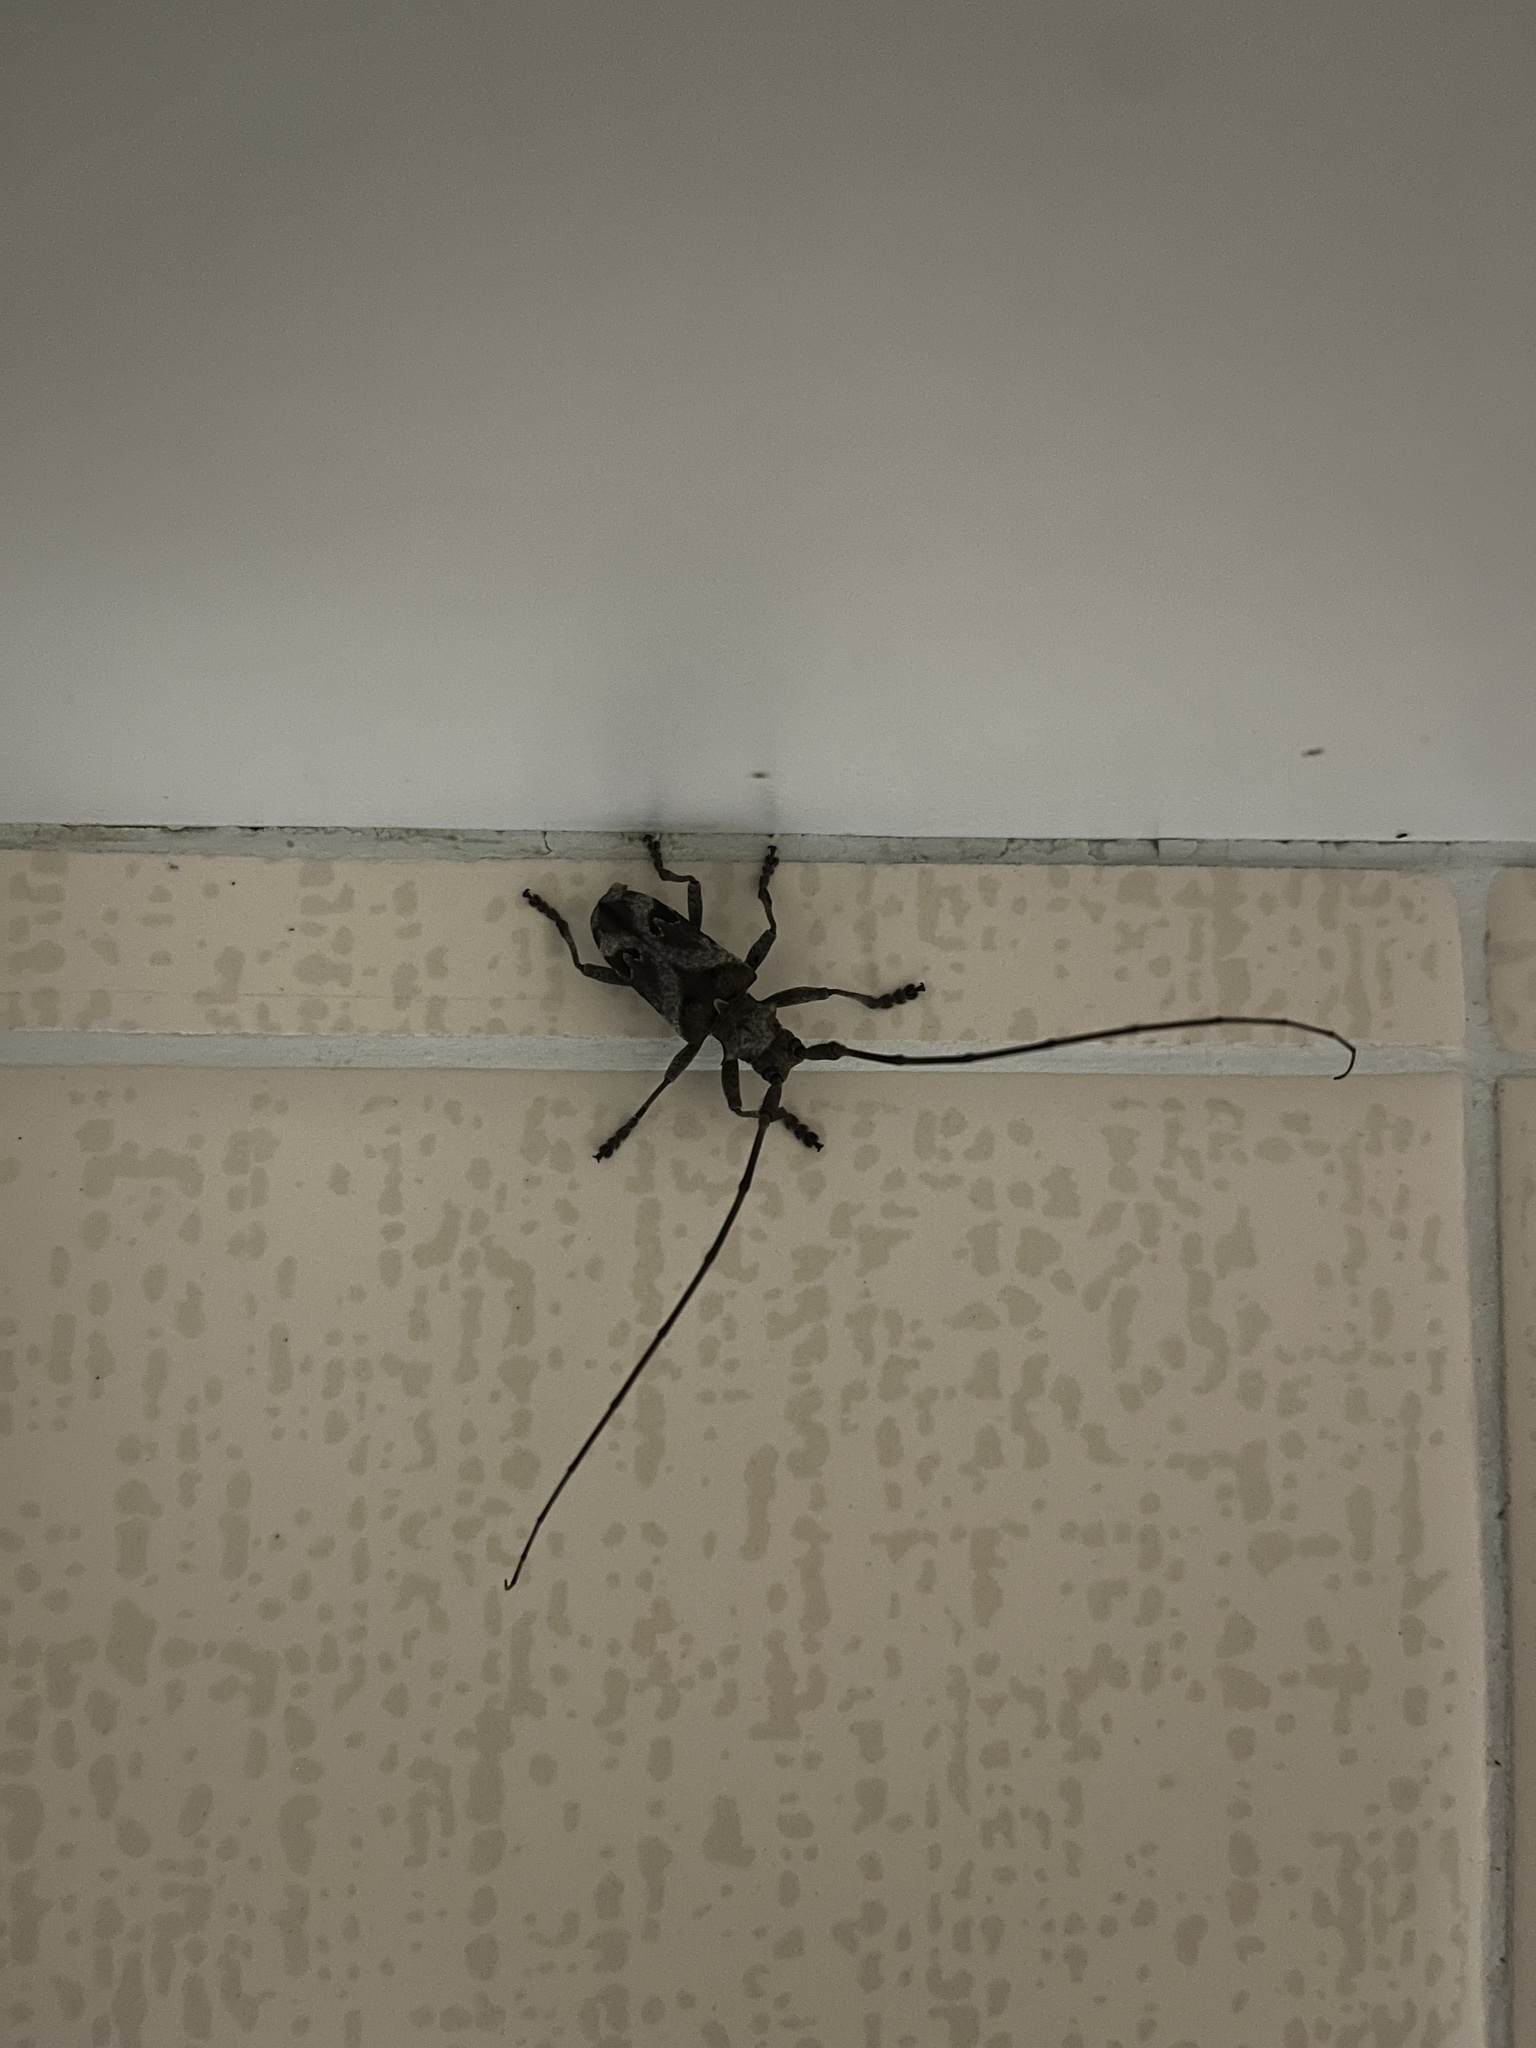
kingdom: Animalia
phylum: Arthropoda
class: Insecta
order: Coleoptera
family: Cerambycidae
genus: Monochamus
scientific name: Monochamus spectabilis
